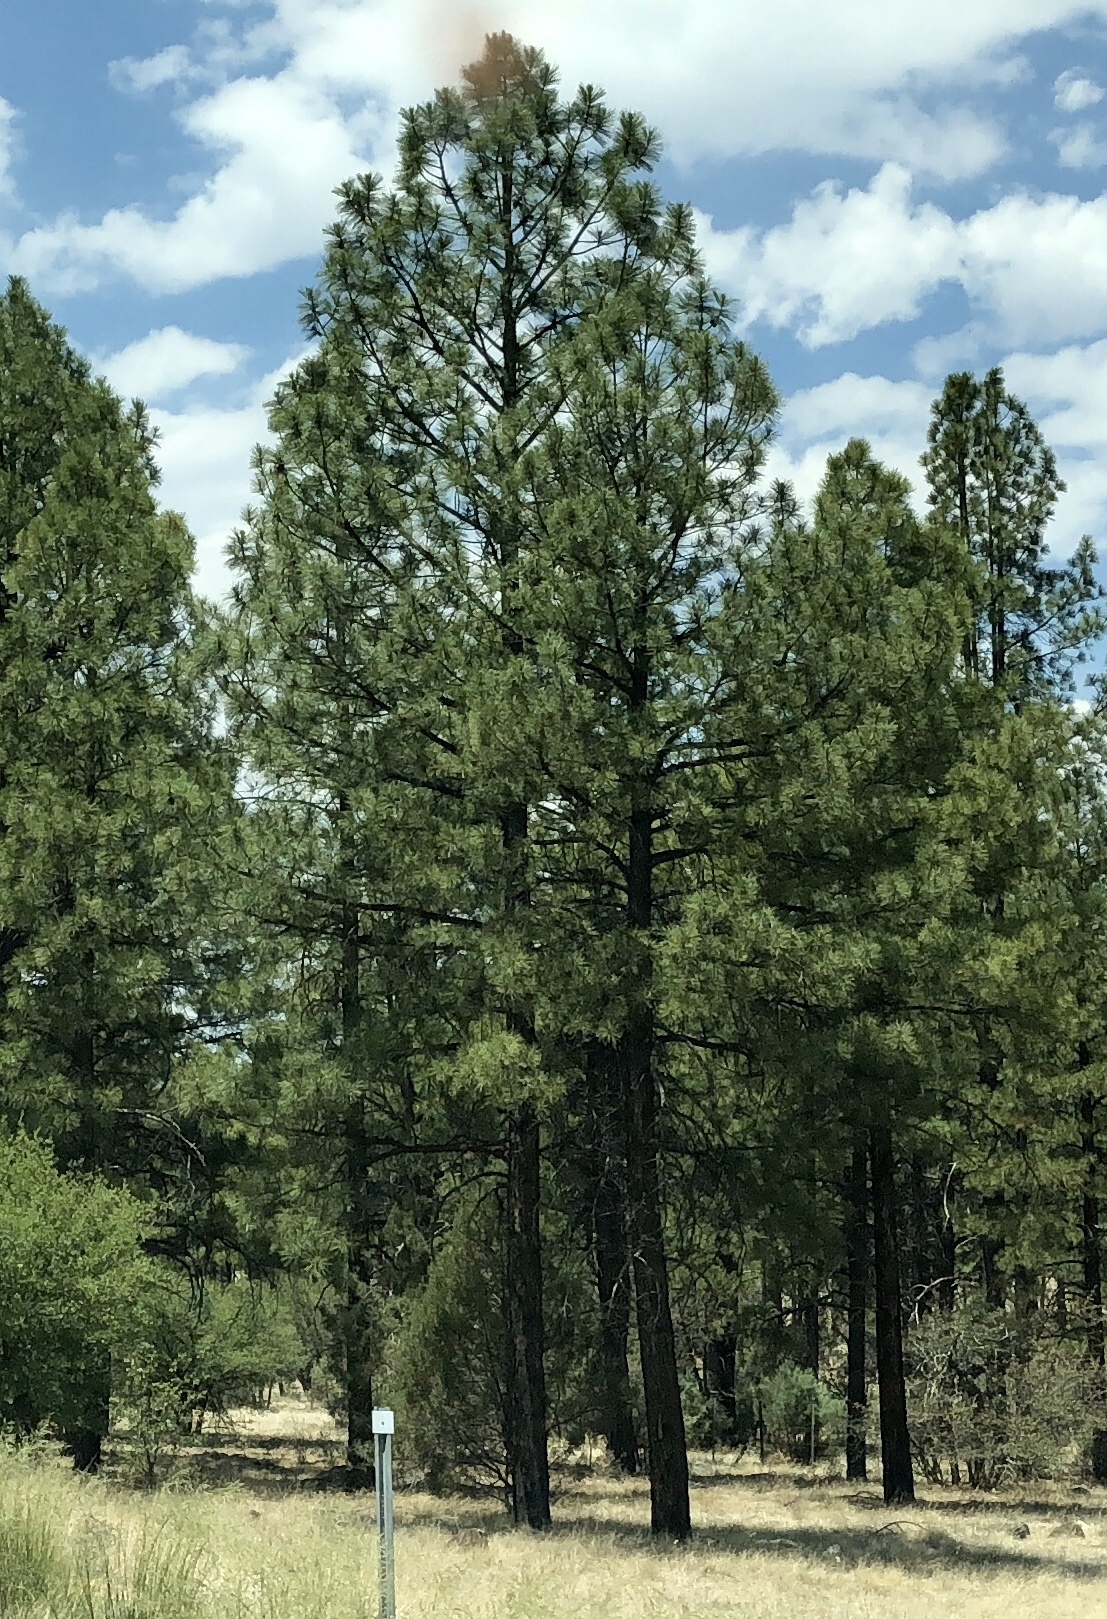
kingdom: Plantae
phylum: Tracheophyta
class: Pinopsida
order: Pinales
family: Pinaceae
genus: Pinus
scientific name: Pinus ponderosa
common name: Western yellow-pine
